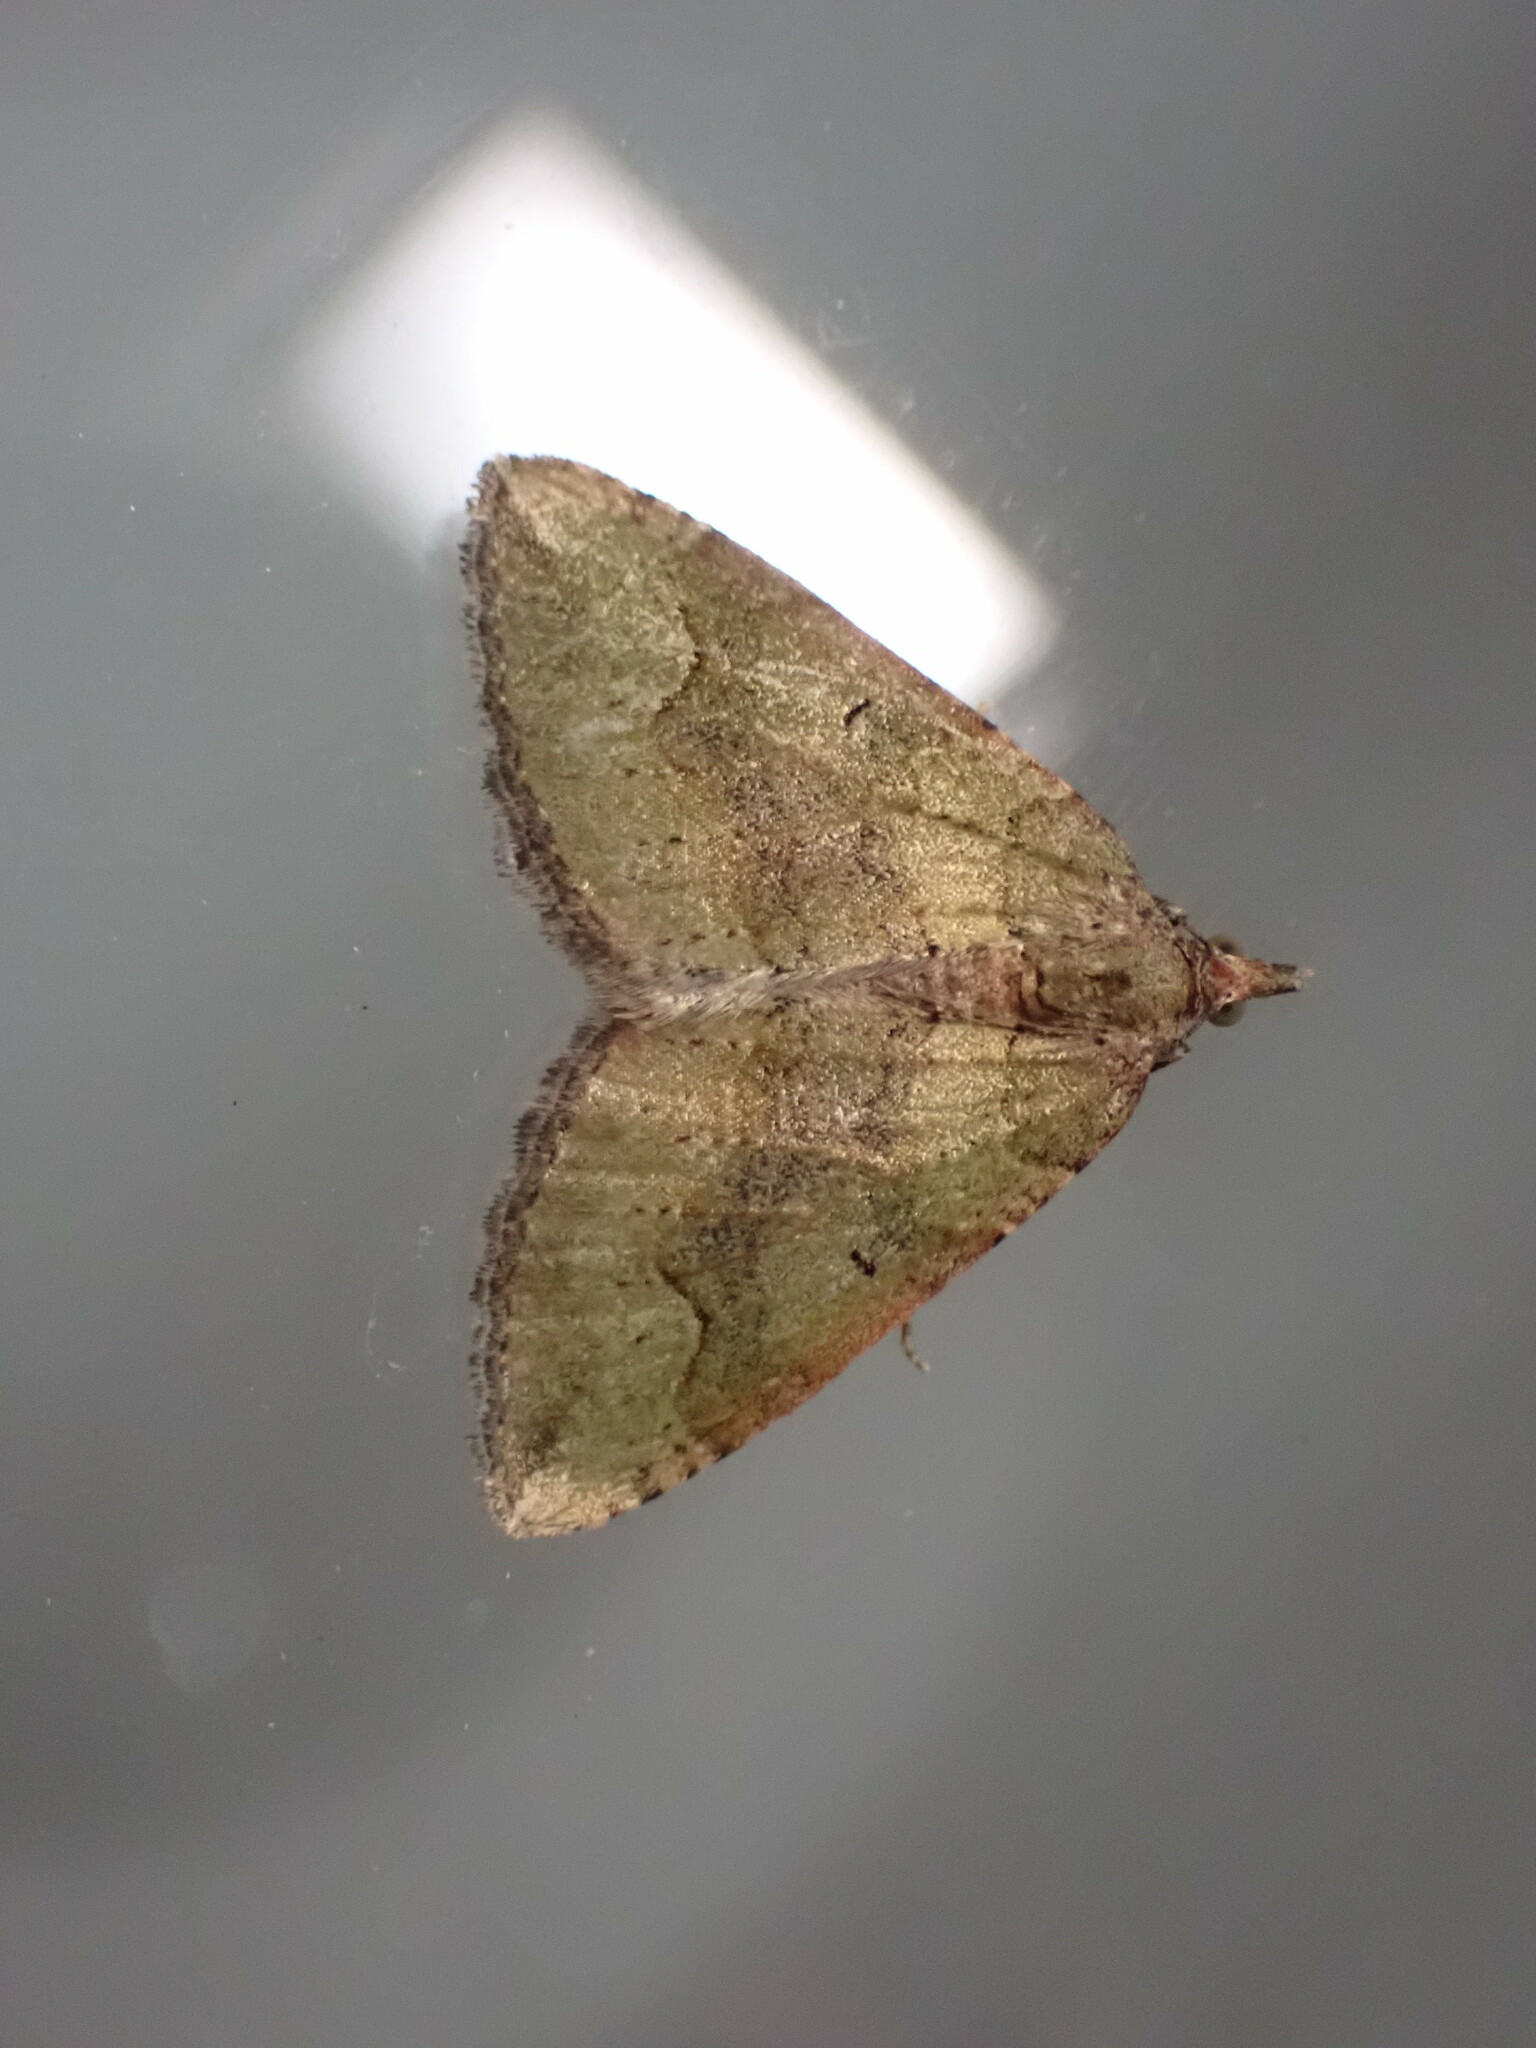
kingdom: Animalia
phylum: Arthropoda
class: Insecta
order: Lepidoptera
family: Geometridae
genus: Epyaxa
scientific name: Epyaxa rosearia
